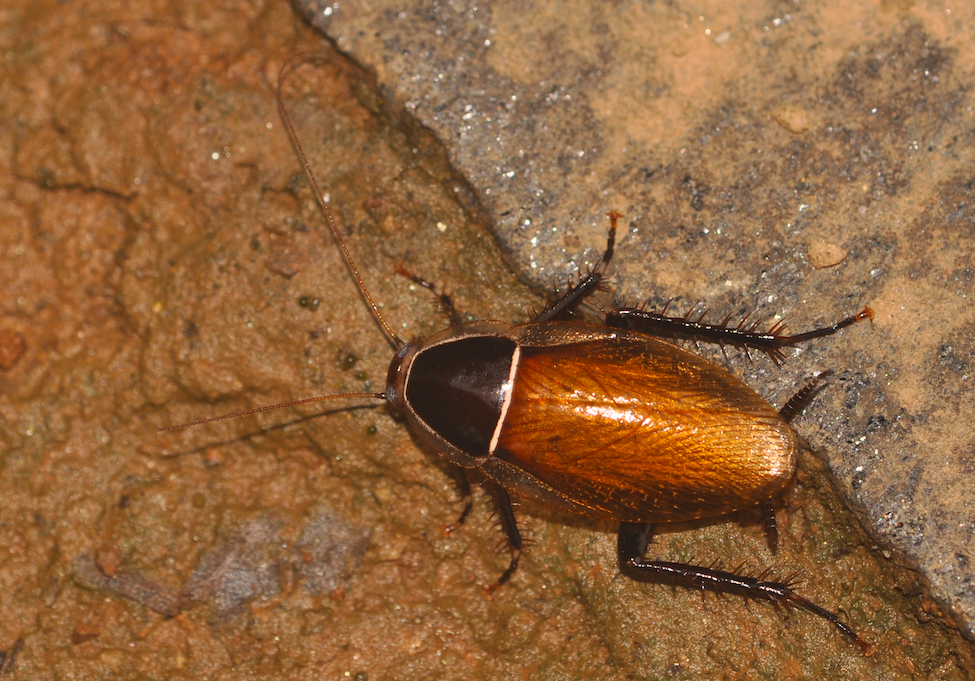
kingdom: Animalia
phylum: Arthropoda
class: Insecta
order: Blattodea
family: Ectobiidae
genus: Anallacta
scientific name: Anallacta methanoides
